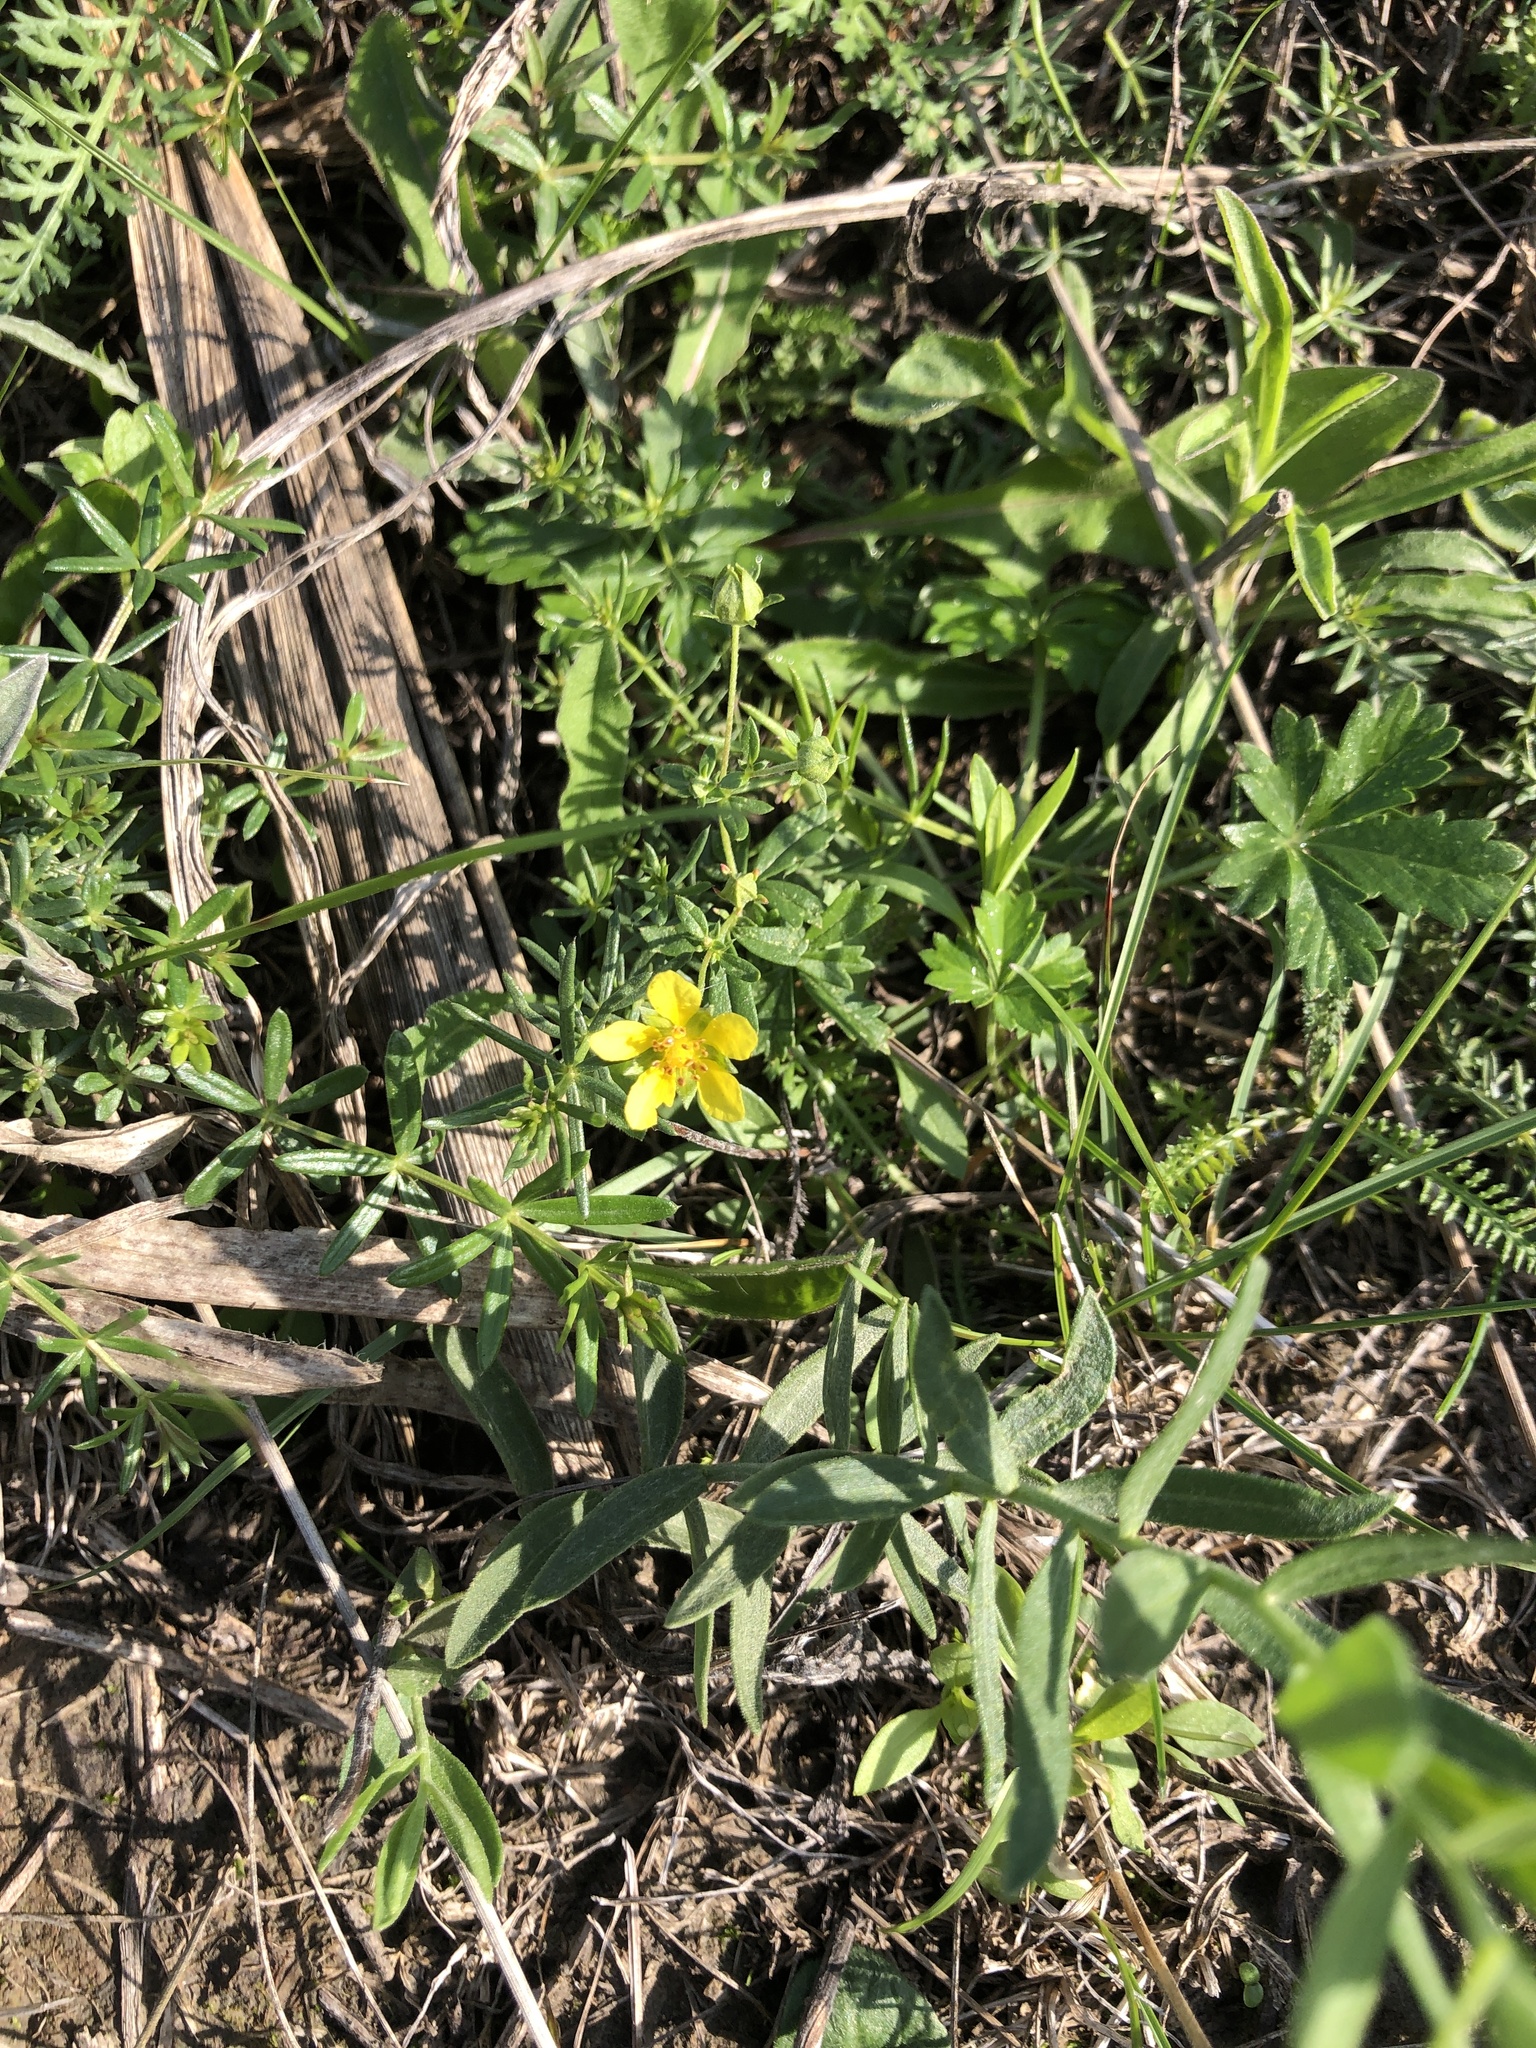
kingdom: Plantae
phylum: Tracheophyta
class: Magnoliopsida
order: Rosales
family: Rosaceae
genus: Potentilla
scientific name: Potentilla argentea
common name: Hoary cinquefoil
